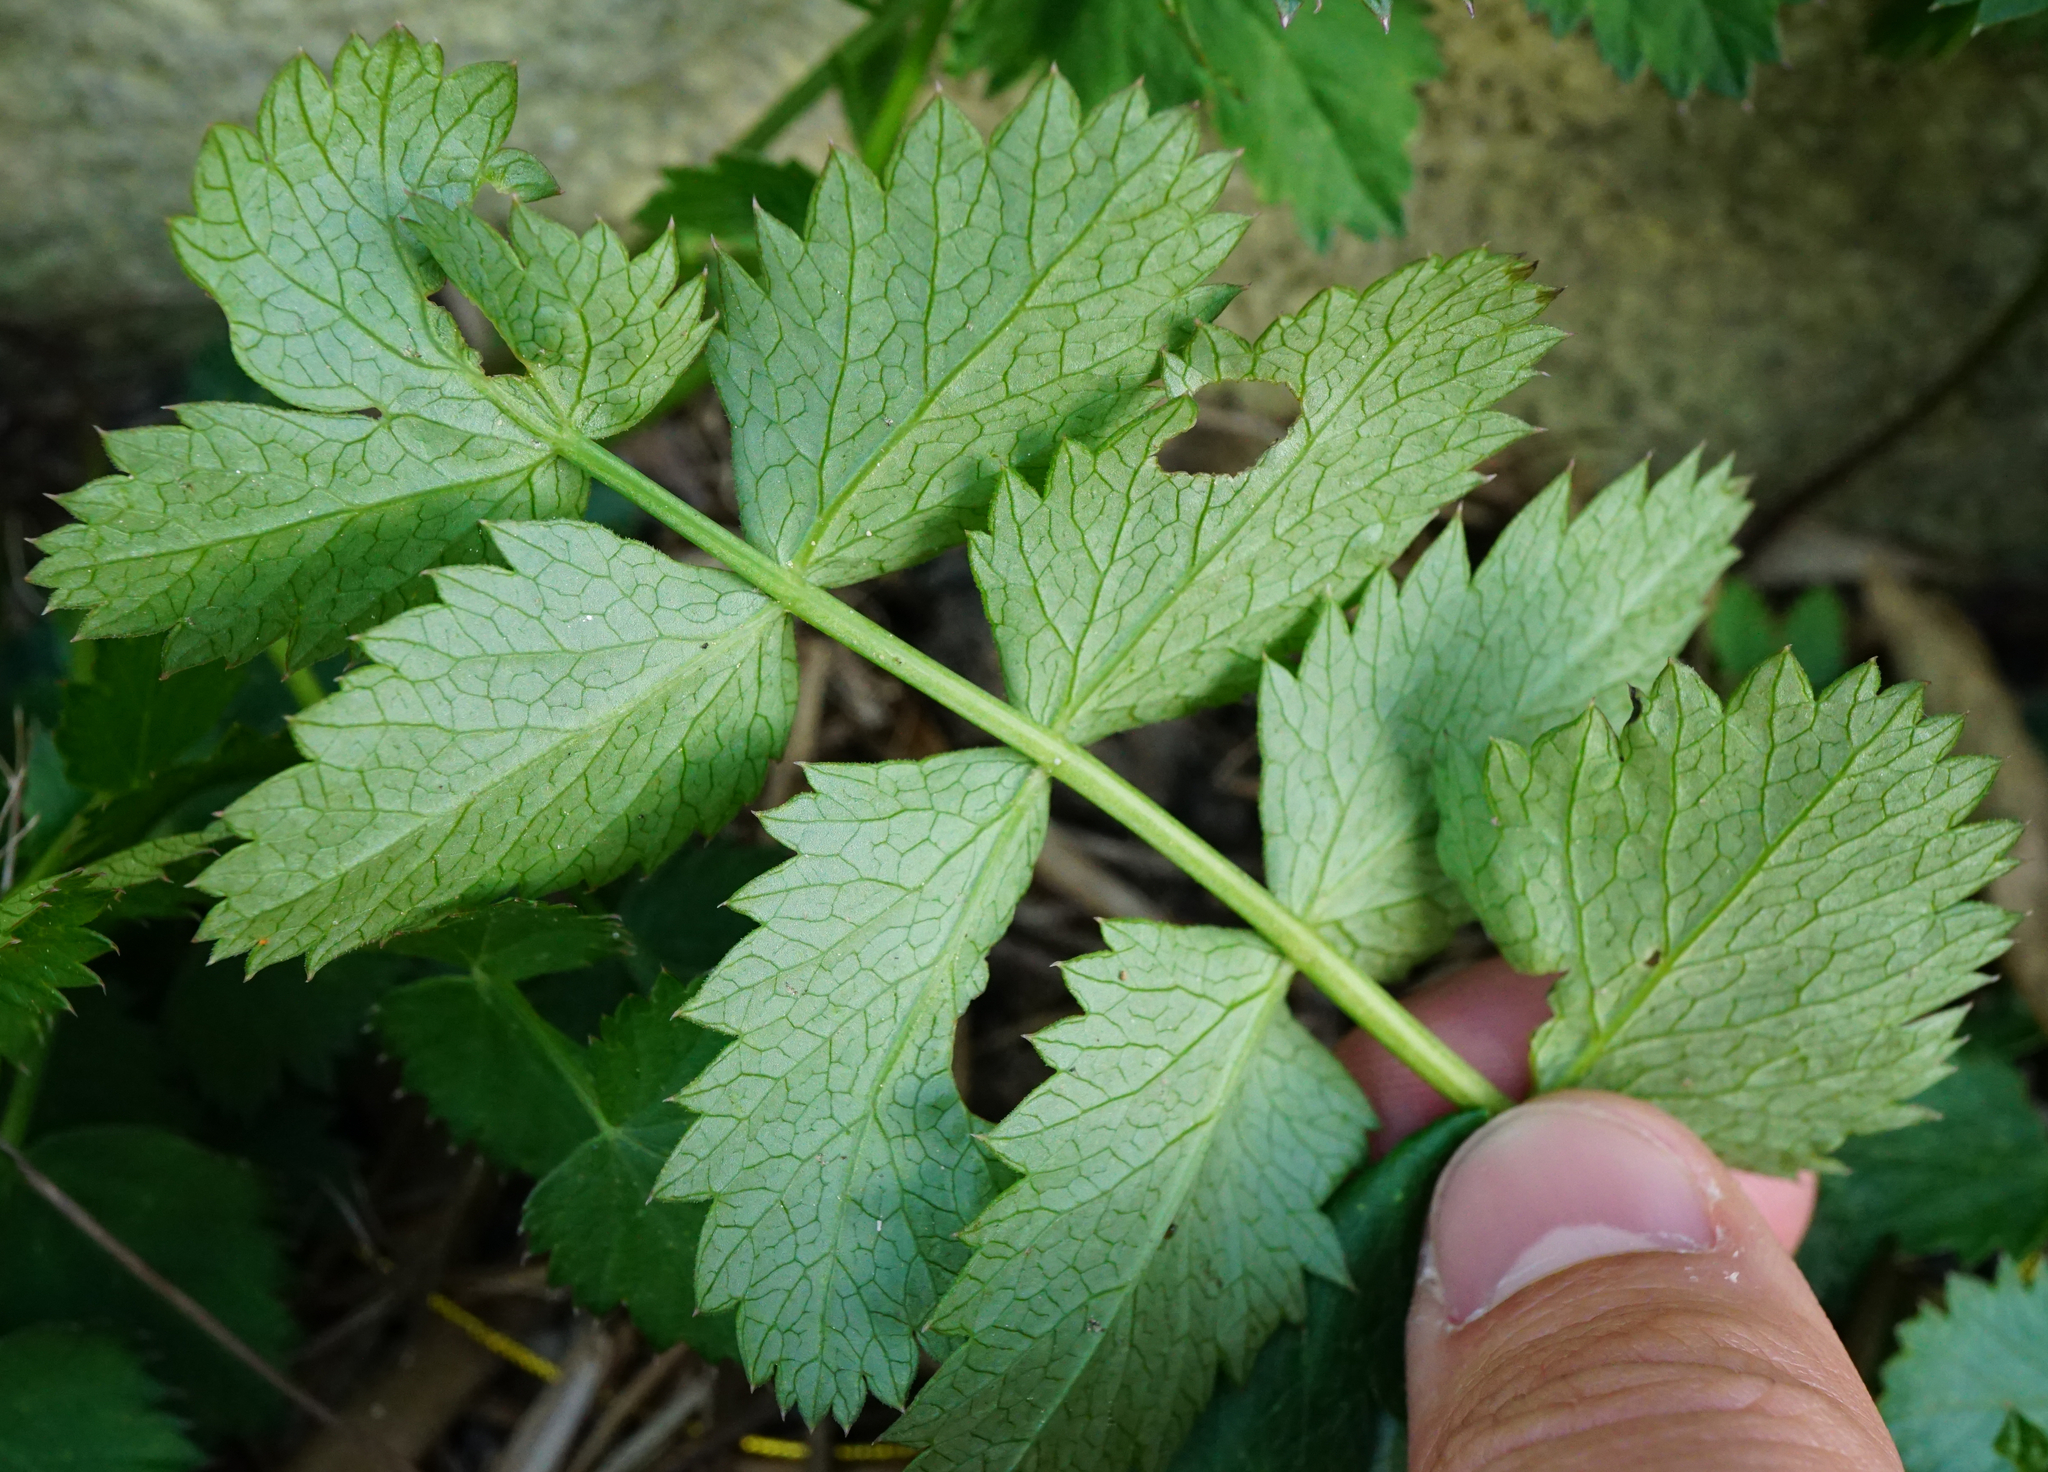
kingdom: Plantae
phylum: Tracheophyta
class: Magnoliopsida
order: Apiales
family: Apiaceae
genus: Pimpinella
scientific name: Pimpinella saxifraga
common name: Burnet-saxifrage
